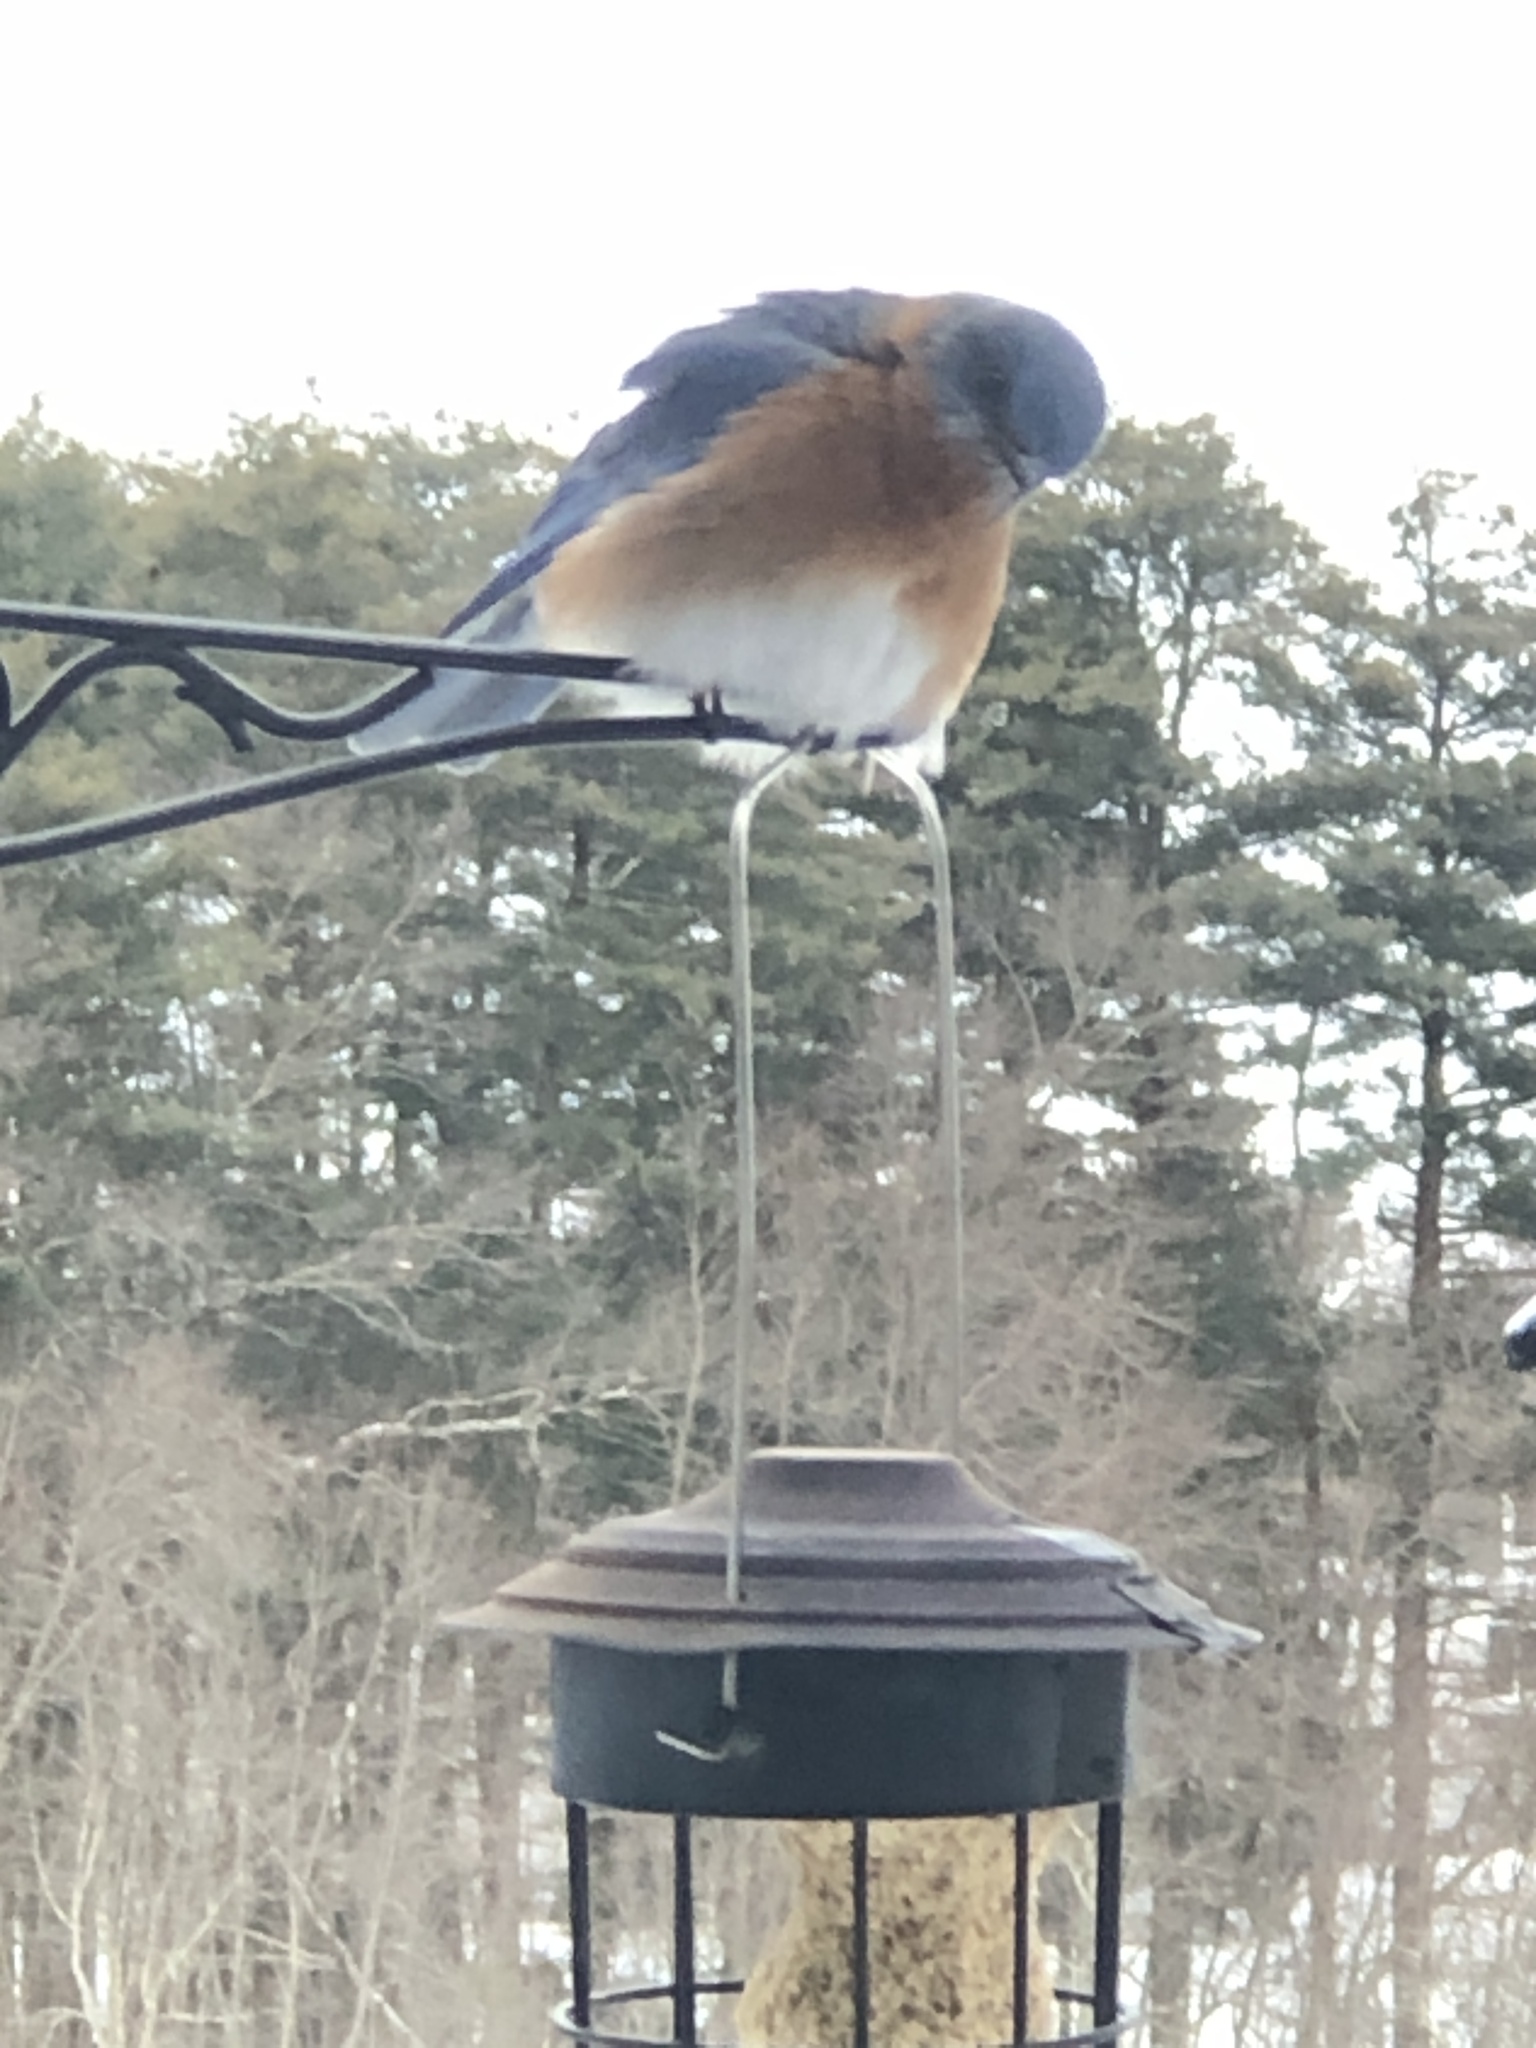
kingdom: Animalia
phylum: Chordata
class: Aves
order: Passeriformes
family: Turdidae
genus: Sialia
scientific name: Sialia sialis
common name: Eastern bluebird
